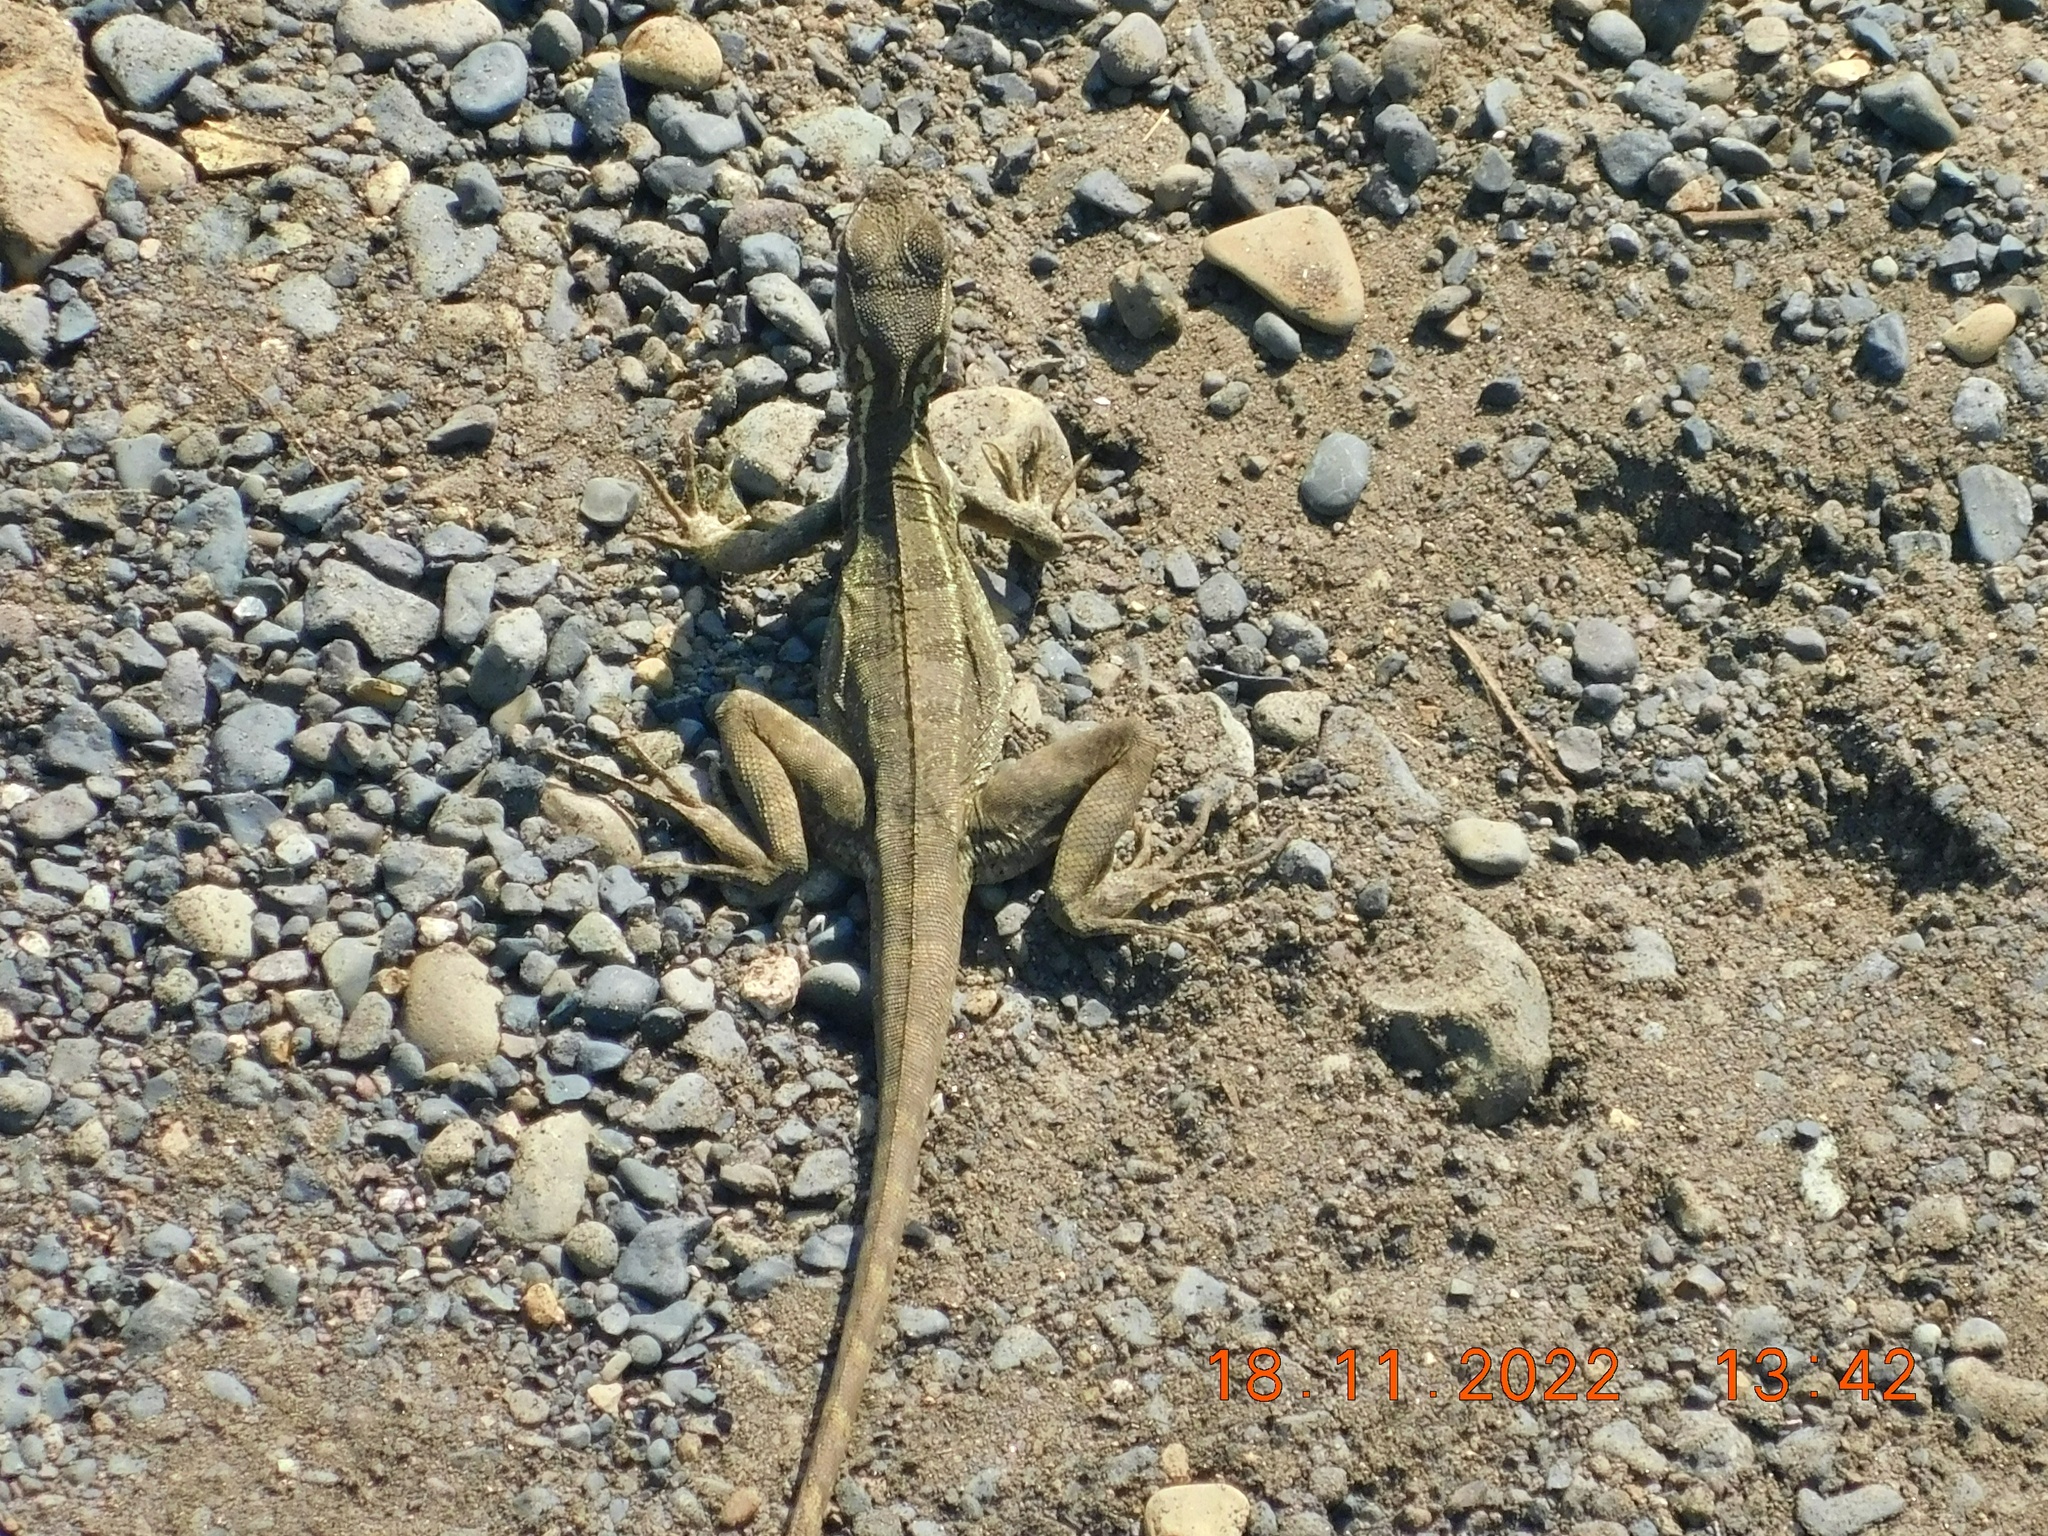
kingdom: Animalia
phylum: Chordata
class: Squamata
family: Corytophanidae
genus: Basiliscus
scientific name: Basiliscus basiliscus
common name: Common basilisk
